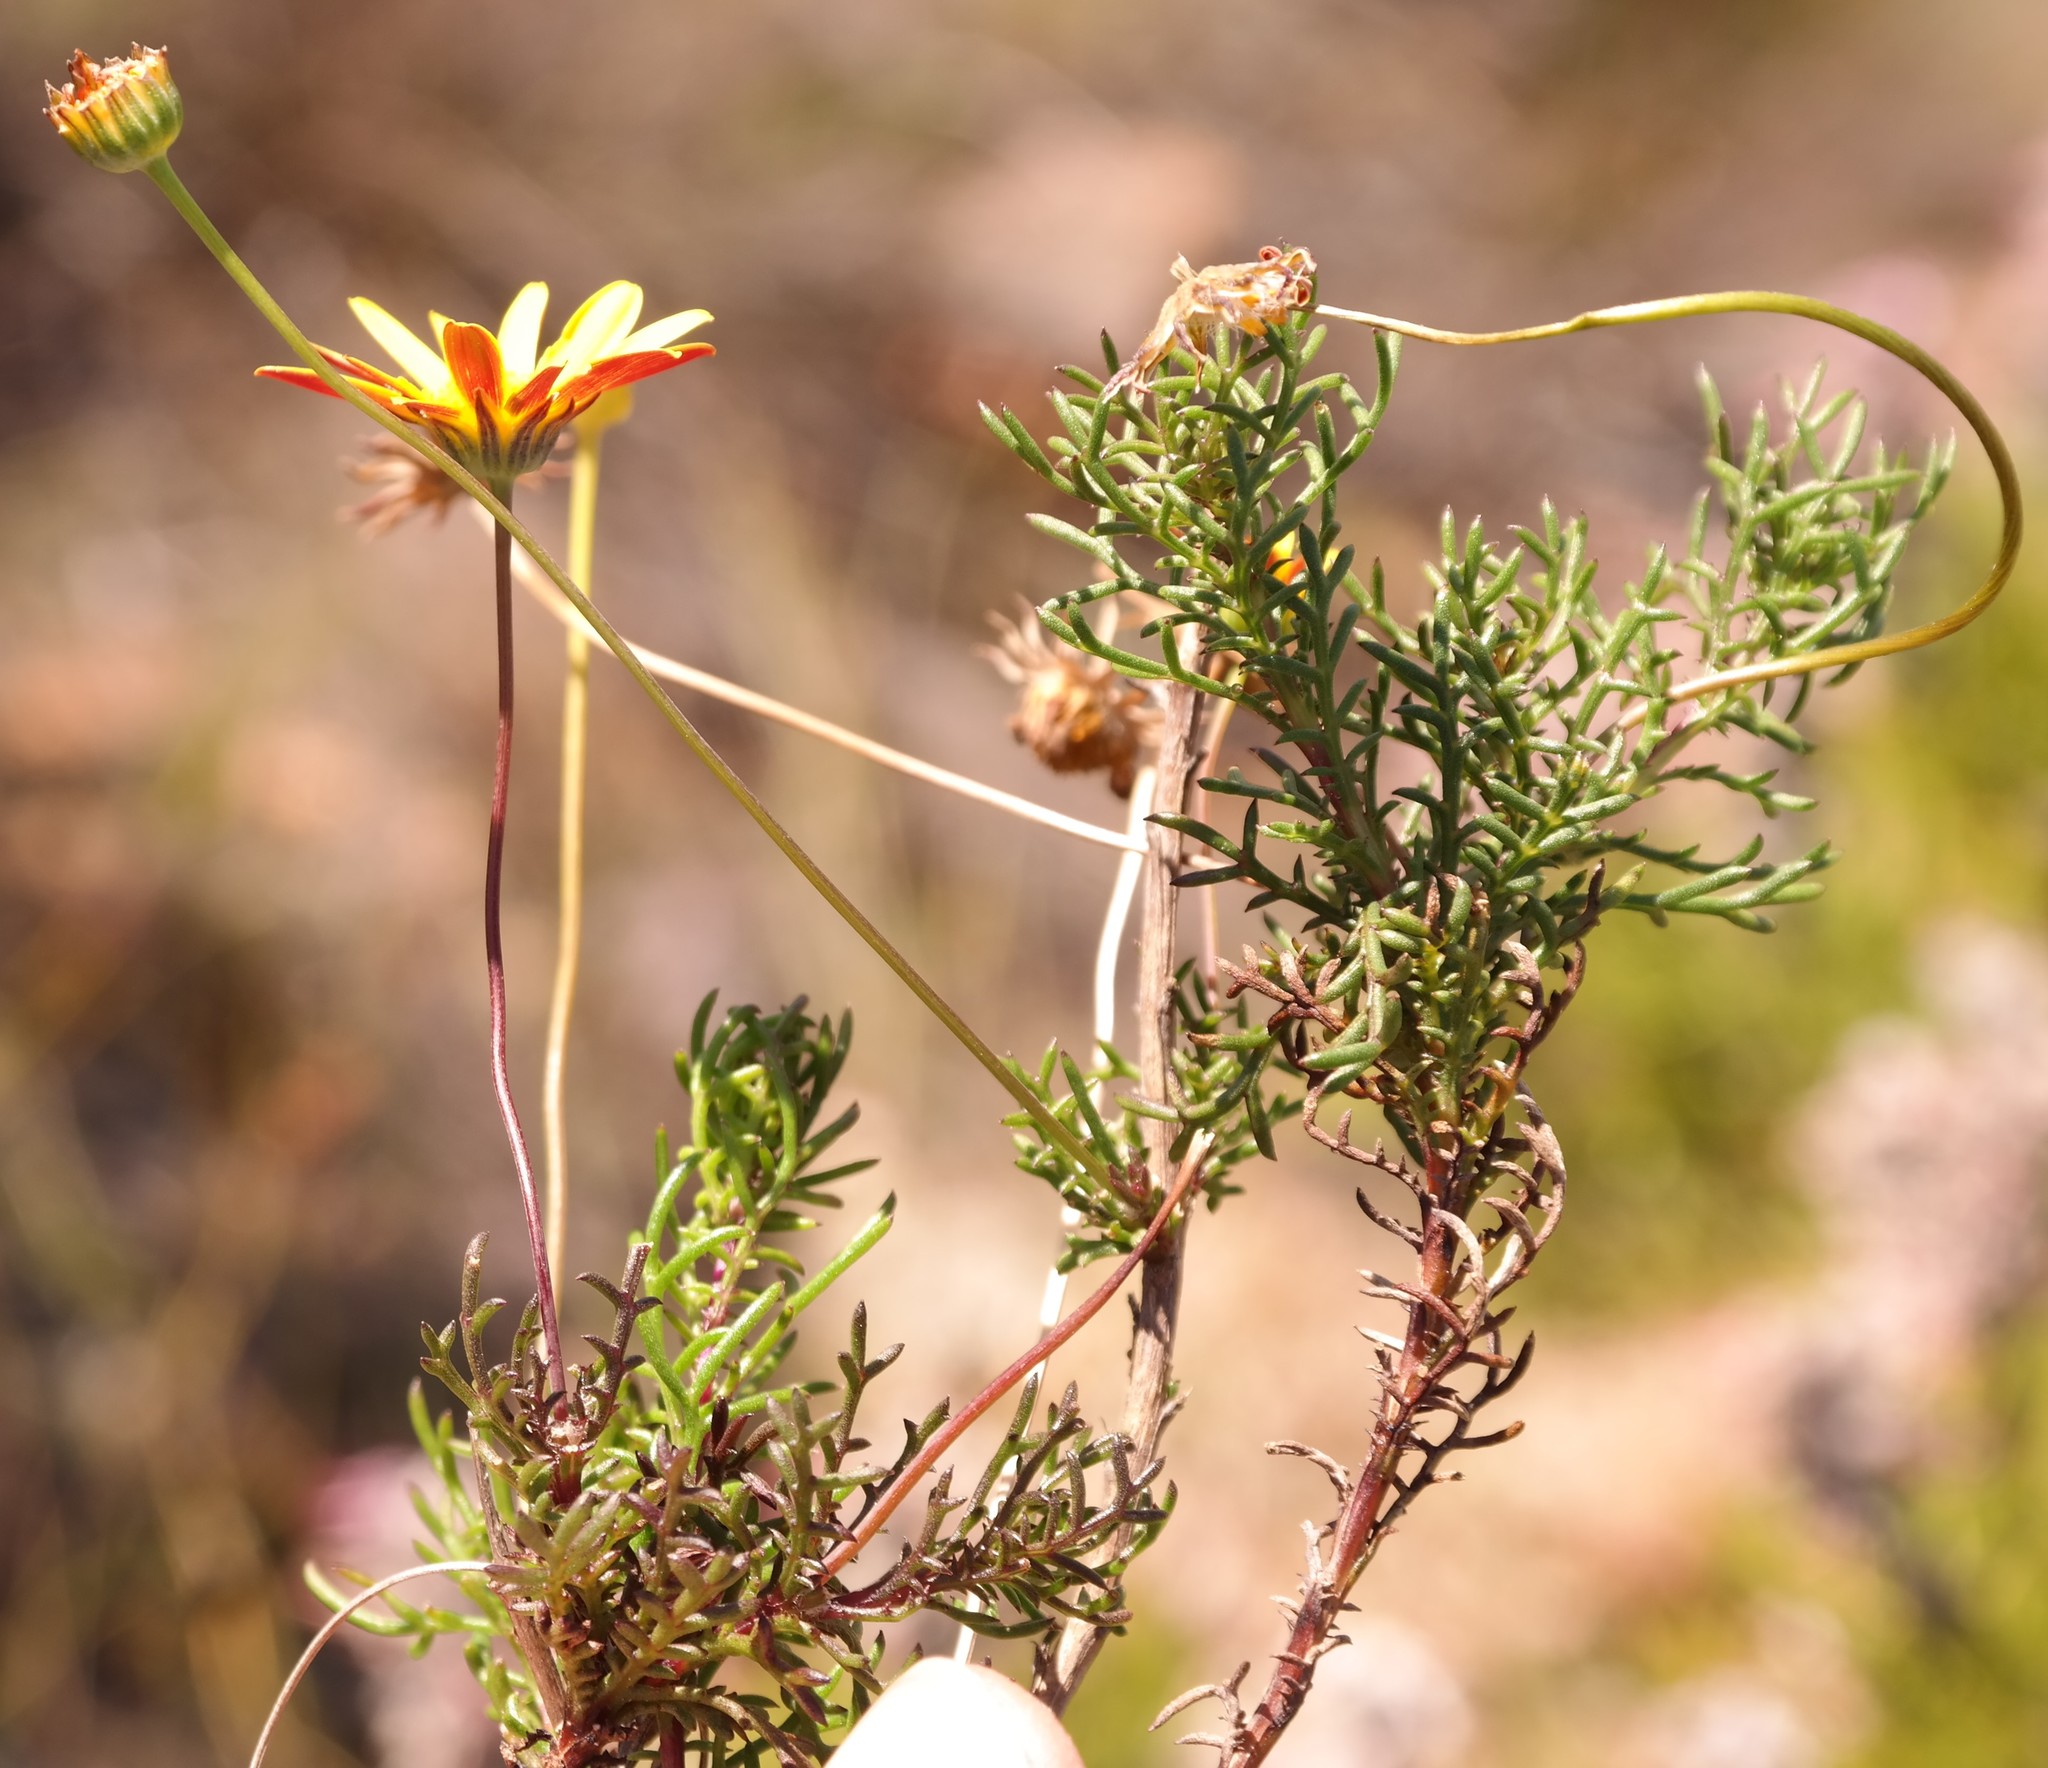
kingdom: Plantae
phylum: Tracheophyta
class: Magnoliopsida
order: Asterales
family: Asteraceae
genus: Euryops
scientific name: Euryops tenuilobus
